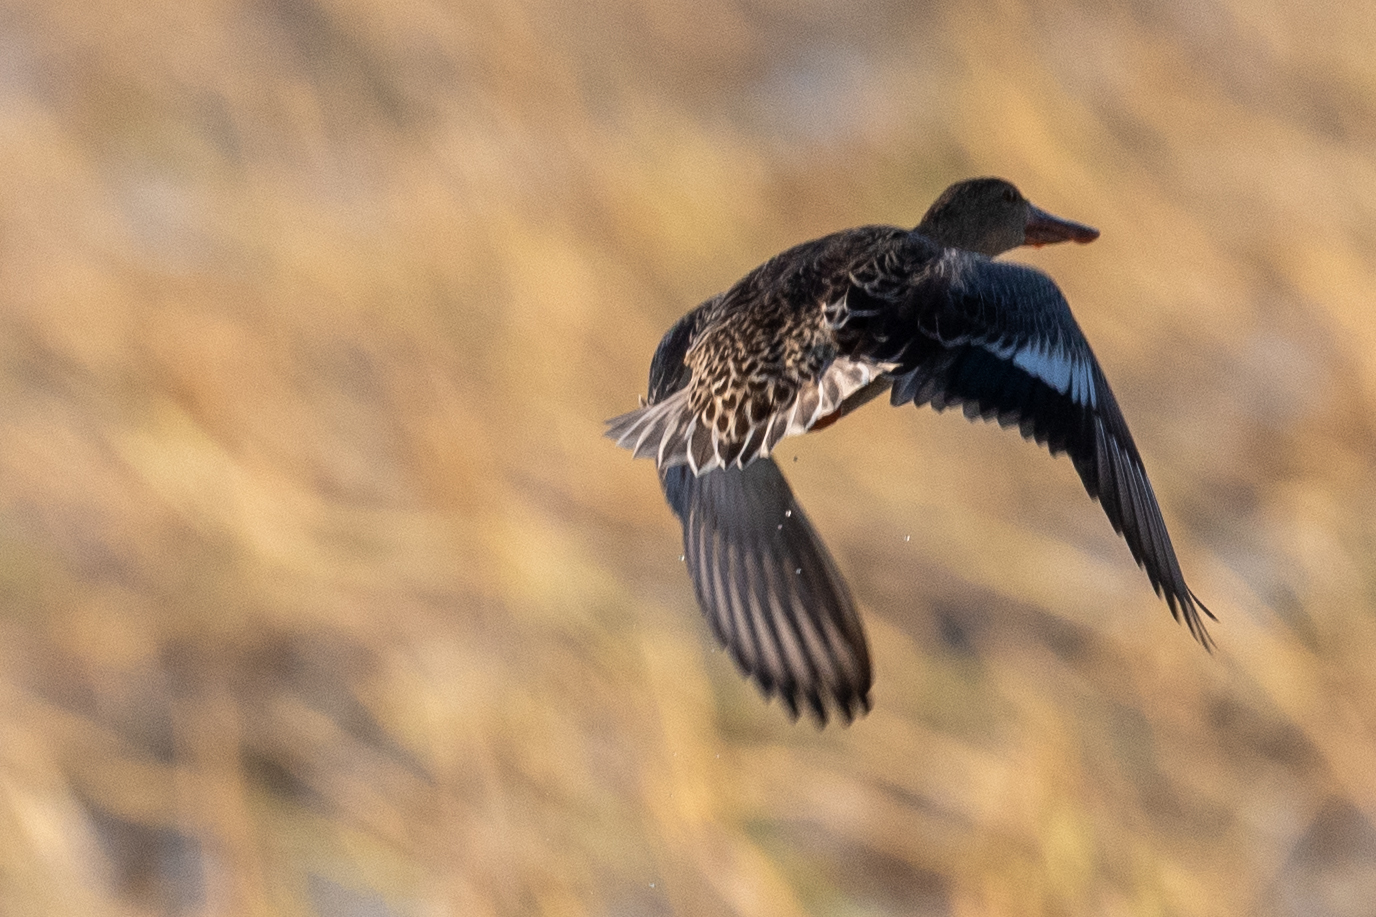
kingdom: Animalia
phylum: Chordata
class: Aves
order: Anseriformes
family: Anatidae
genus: Spatula
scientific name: Spatula clypeata
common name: Northern shoveler
